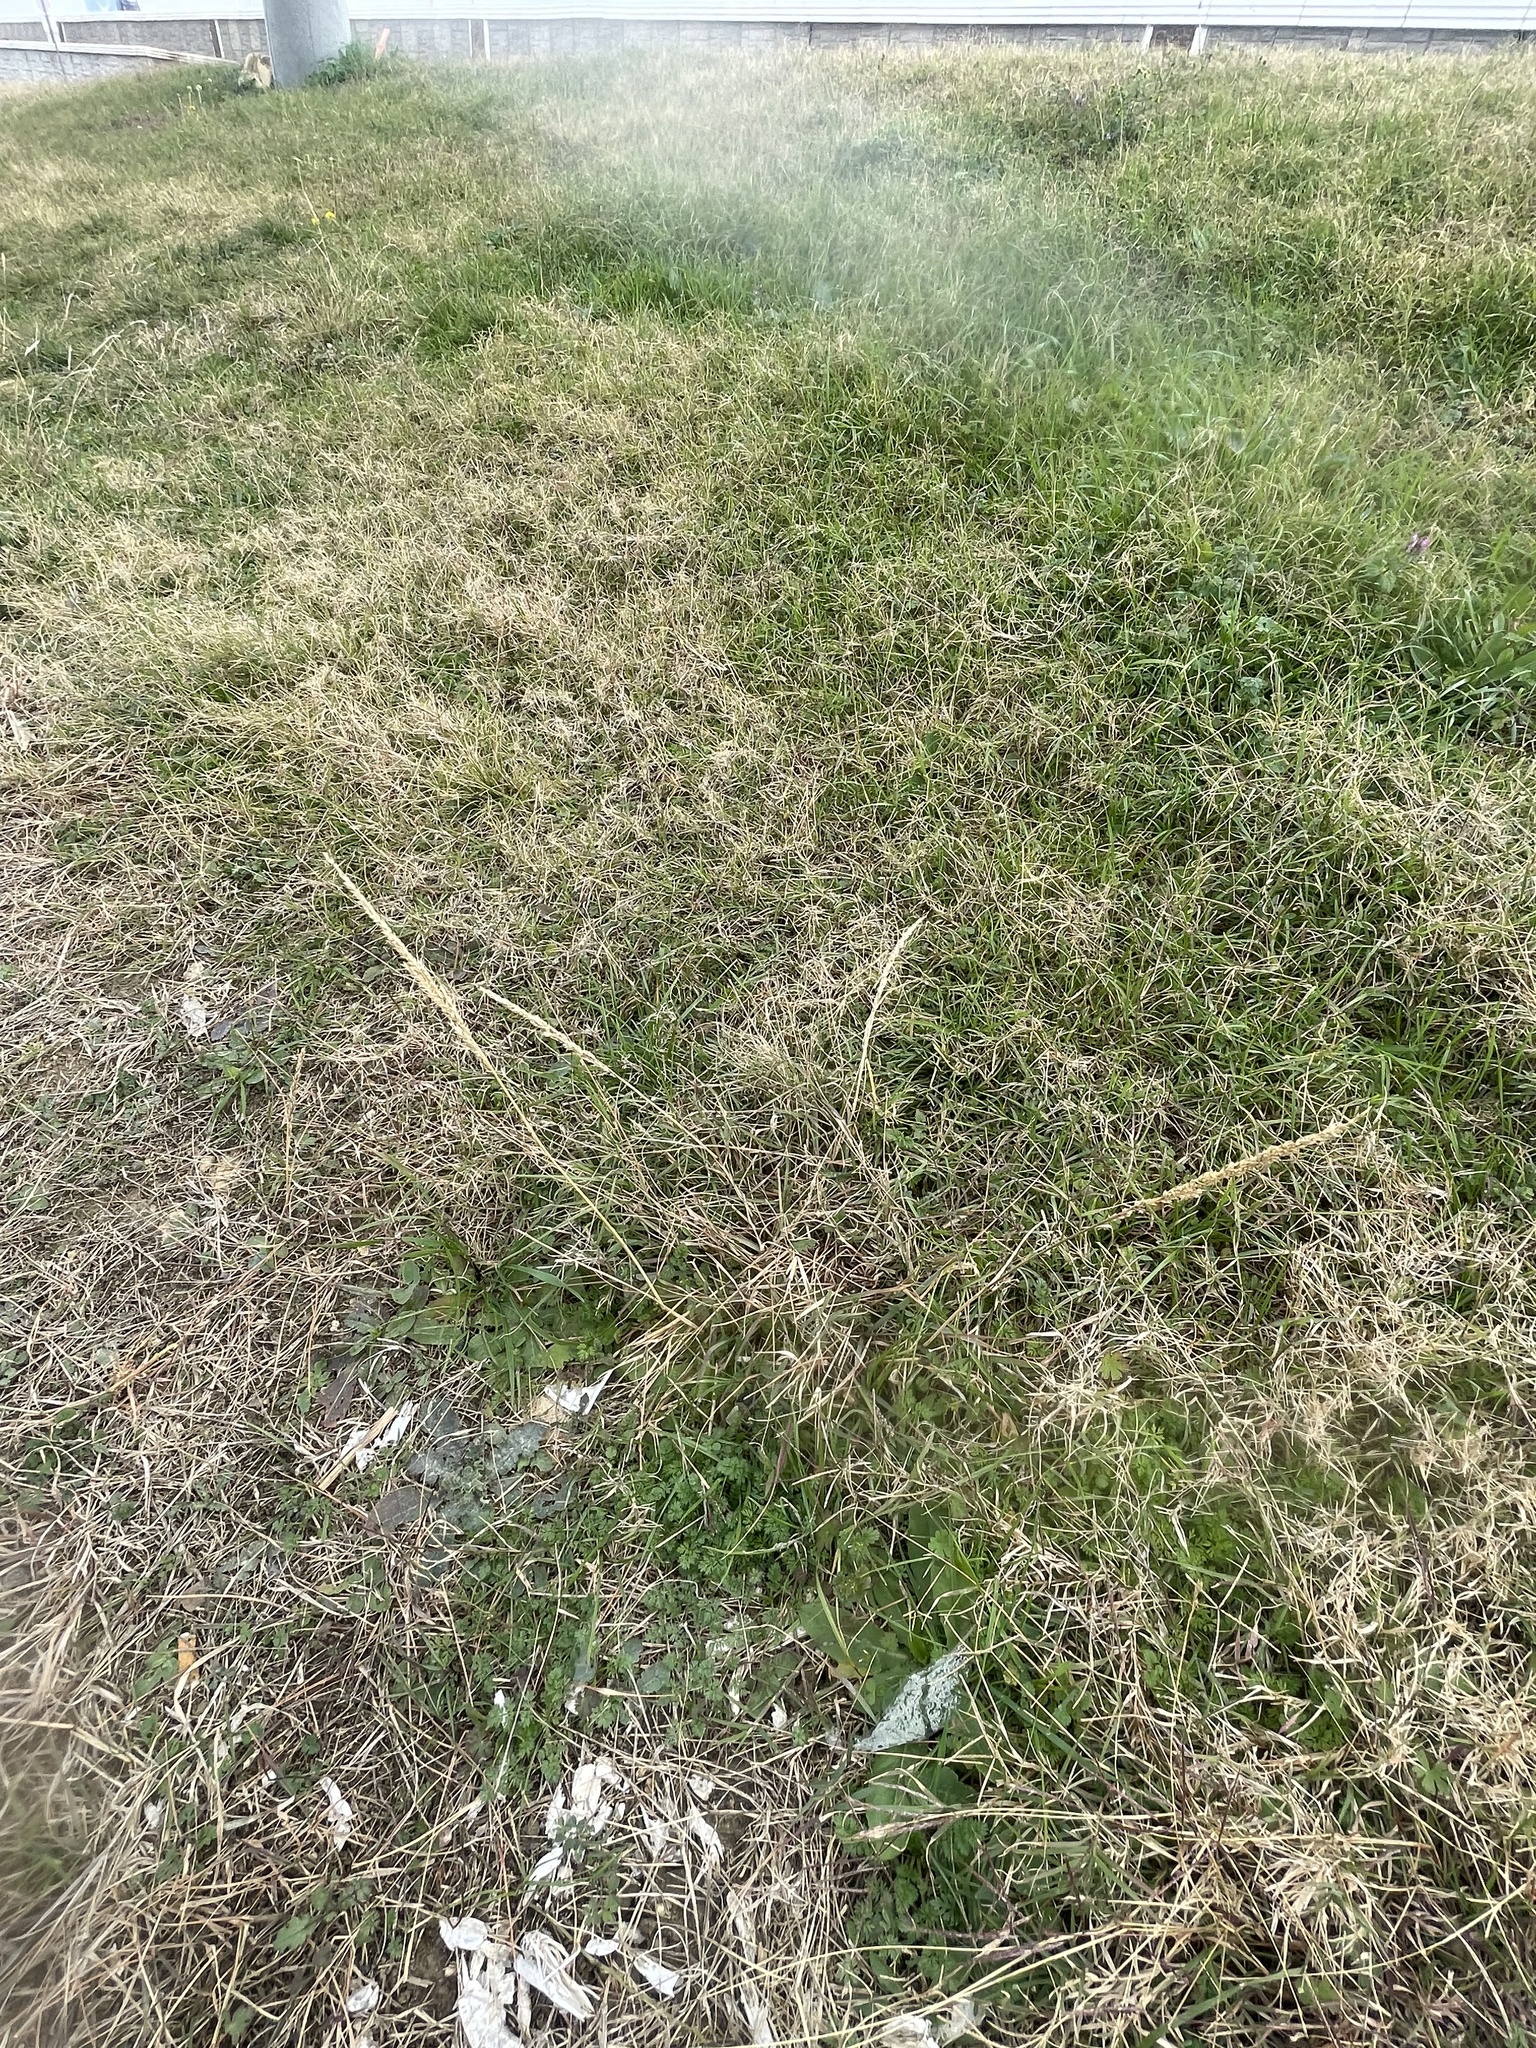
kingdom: Plantae
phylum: Tracheophyta
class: Liliopsida
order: Poales
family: Poaceae
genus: Tridens
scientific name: Tridens albescens
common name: White tridens
